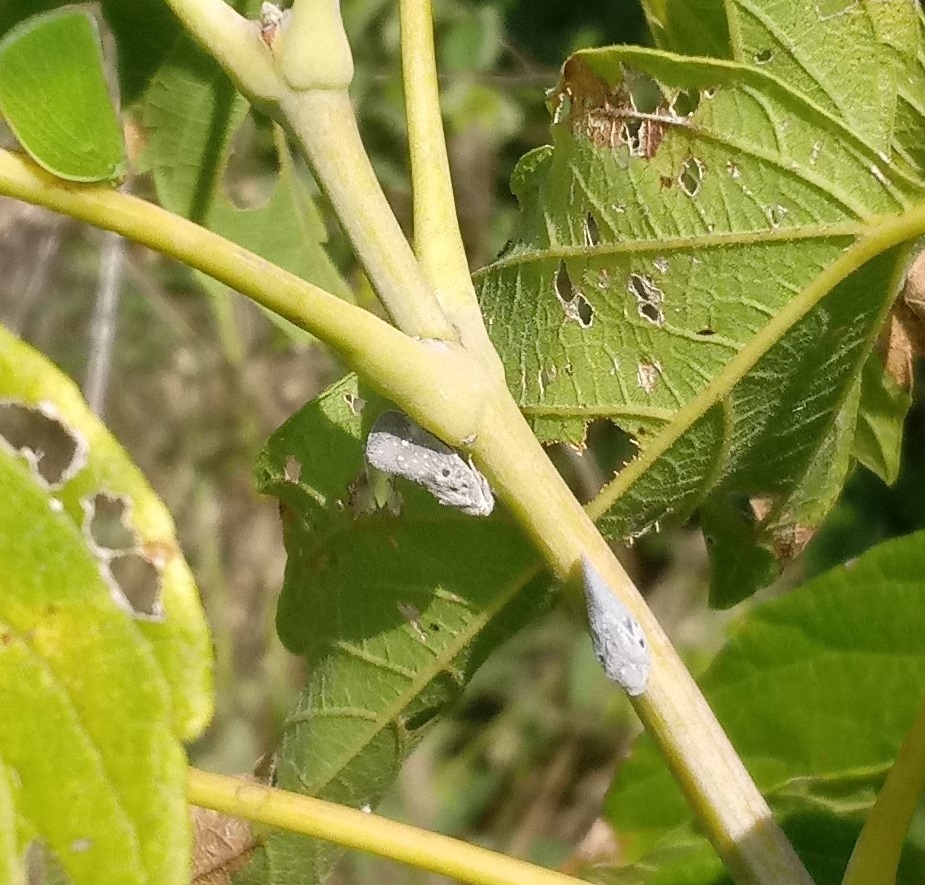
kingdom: Animalia
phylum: Arthropoda
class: Insecta
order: Hemiptera
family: Flatidae
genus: Metcalfa
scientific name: Metcalfa pruinosa
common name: Citrus flatid planthopper
